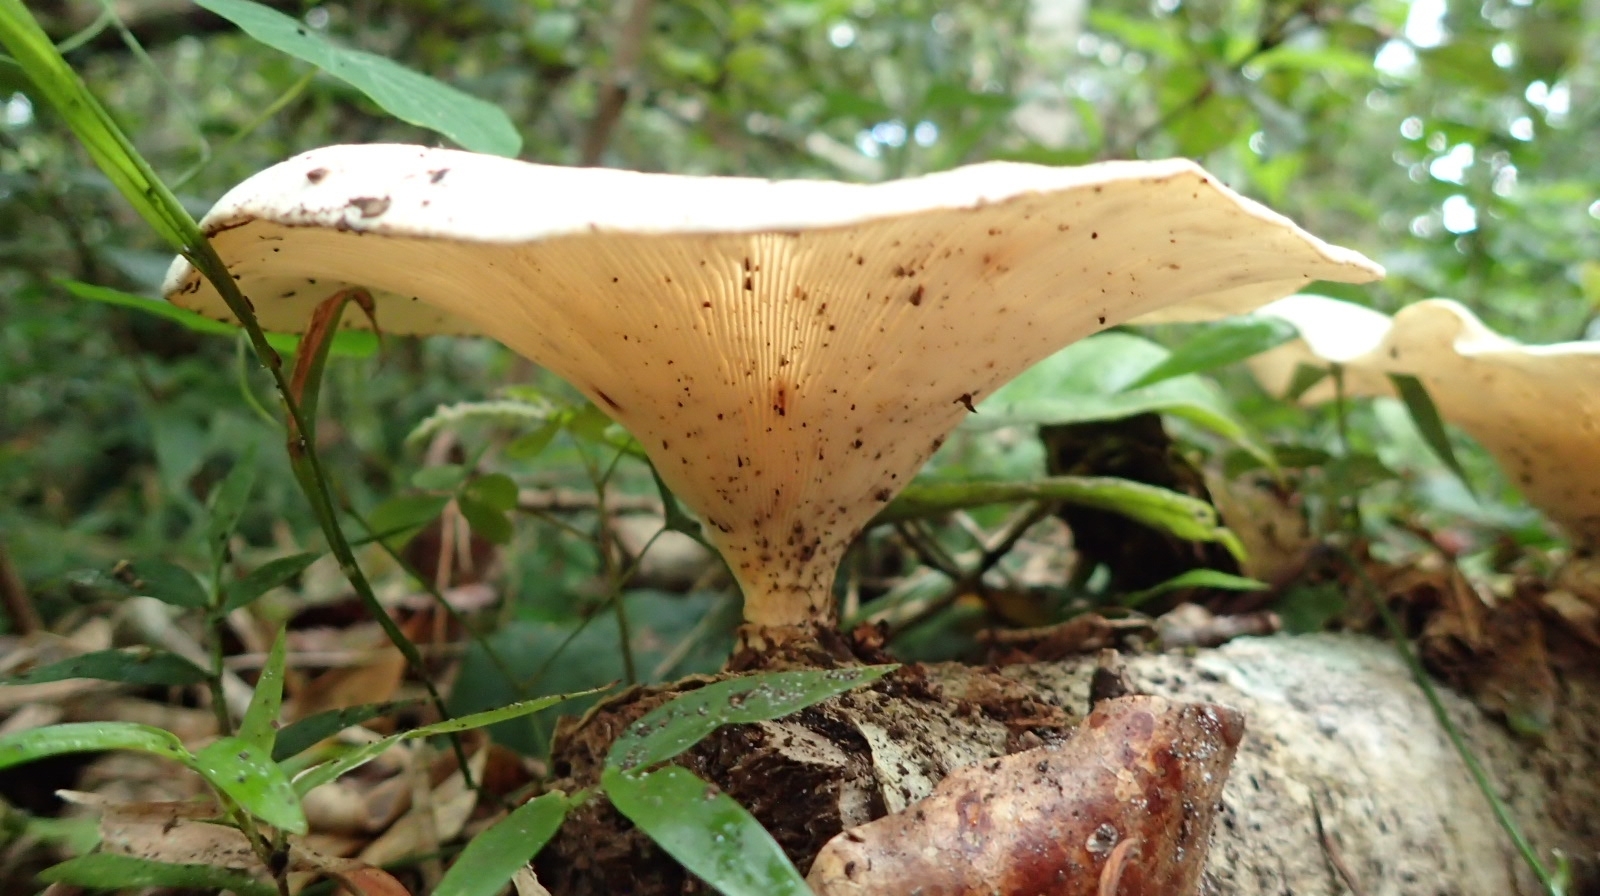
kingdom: Fungi
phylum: Basidiomycota
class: Agaricomycetes
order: Polyporales
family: Polyporaceae
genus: Lentinus
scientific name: Lentinus sajor-caju
